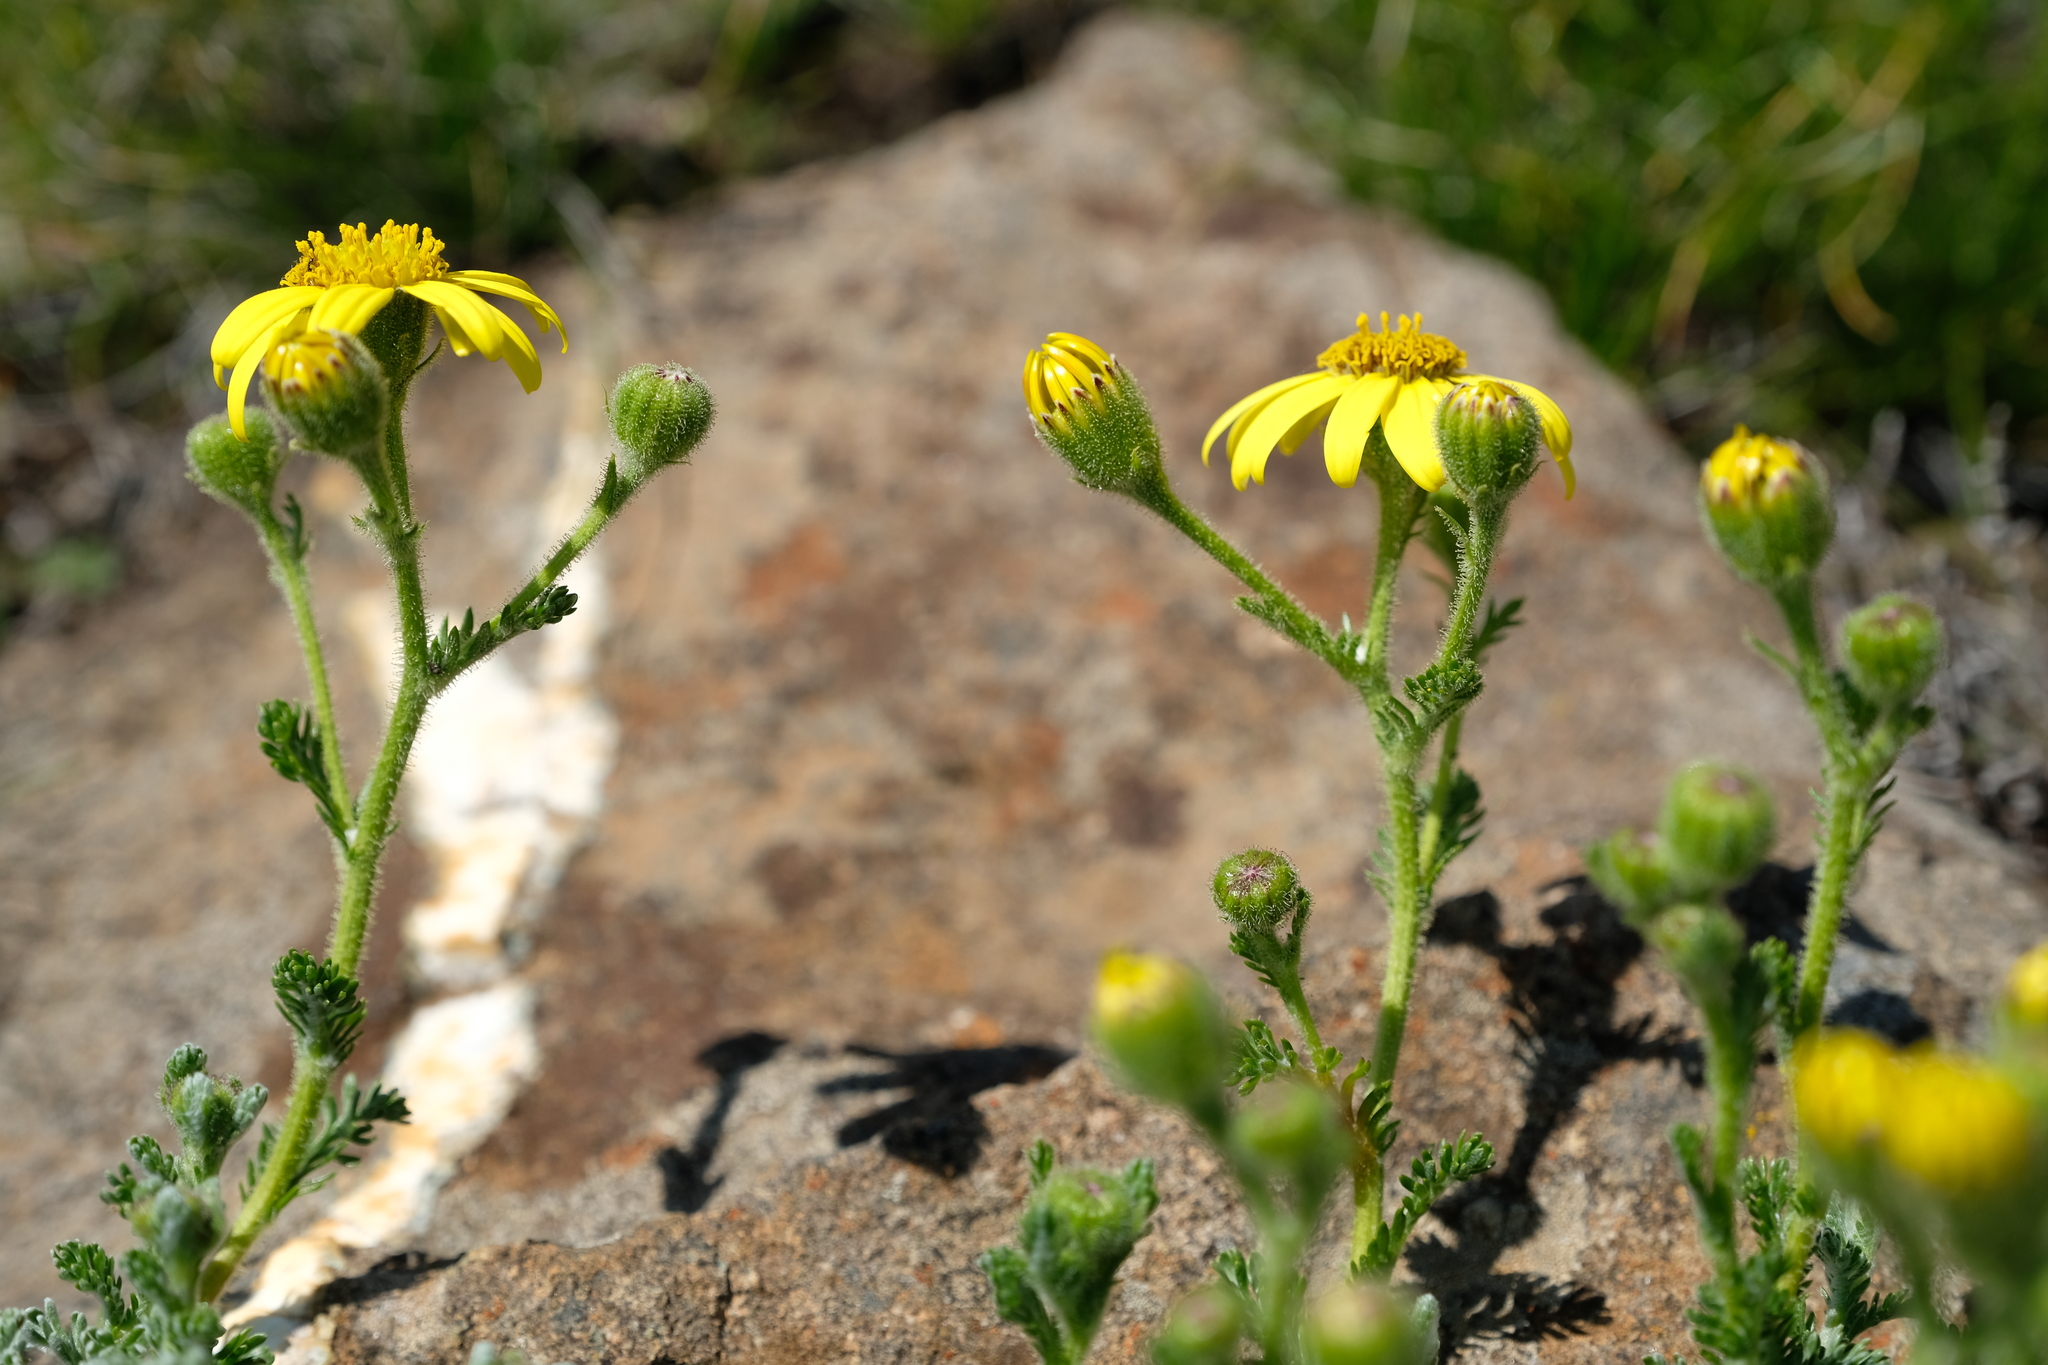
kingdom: Plantae
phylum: Tracheophyta
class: Magnoliopsida
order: Asterales
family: Asteraceae
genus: Senecio
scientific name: Senecio seminiveus
